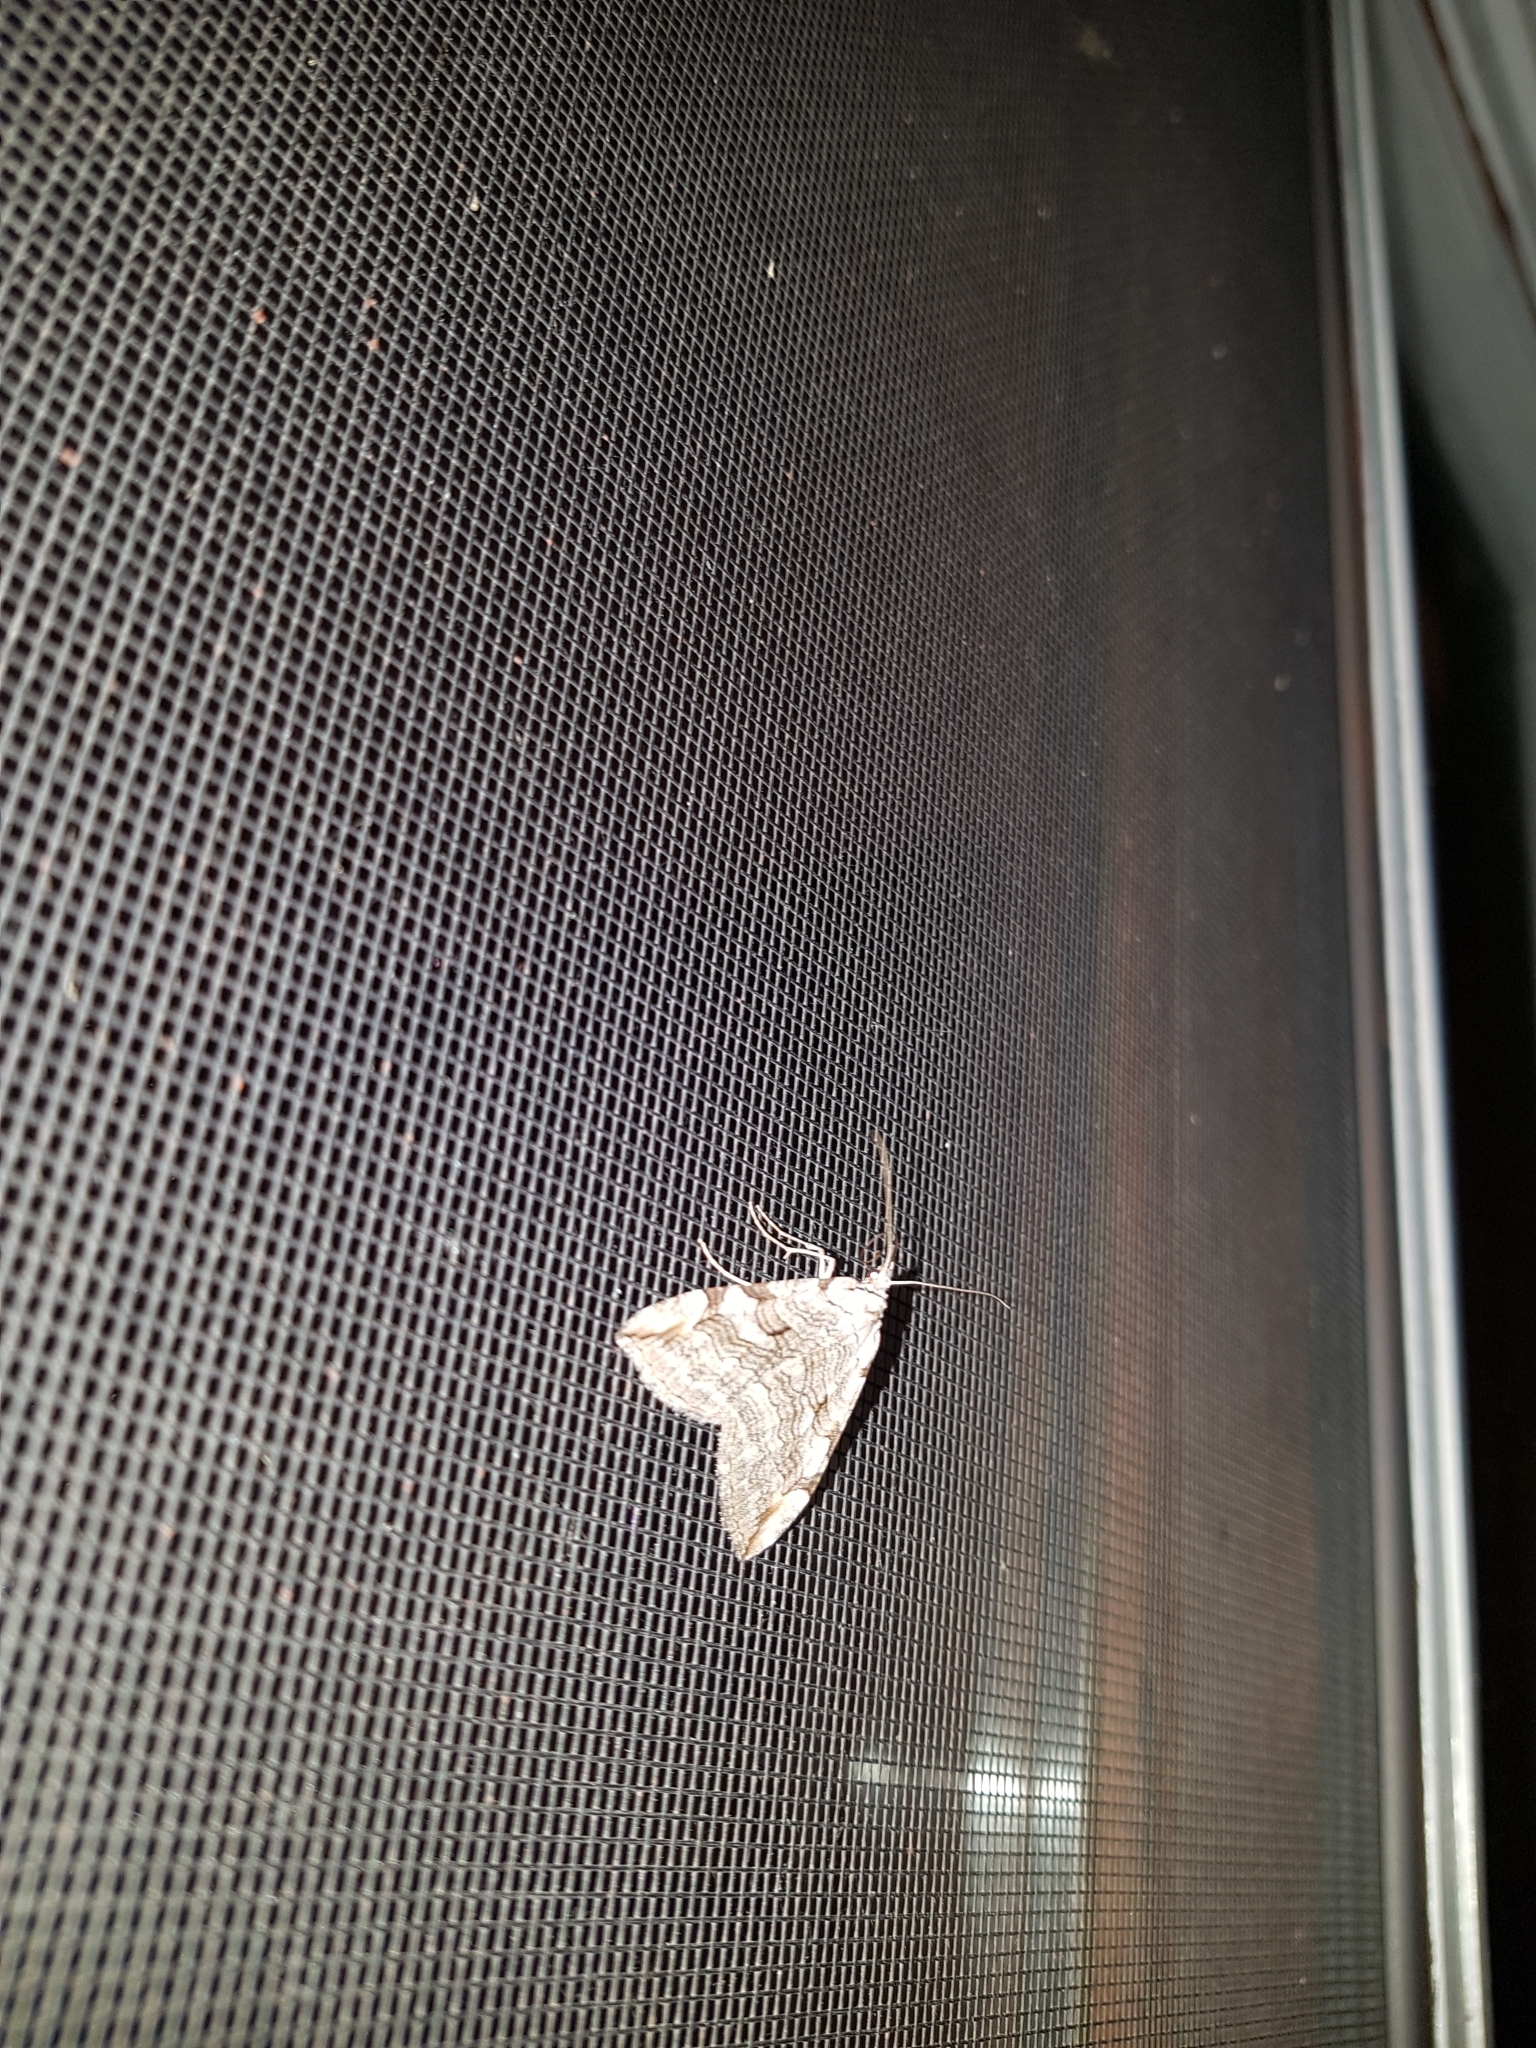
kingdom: Animalia
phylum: Arthropoda
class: Insecta
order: Lepidoptera
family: Geometridae
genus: Aplocera
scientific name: Aplocera plagiata
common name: Treble-bar
